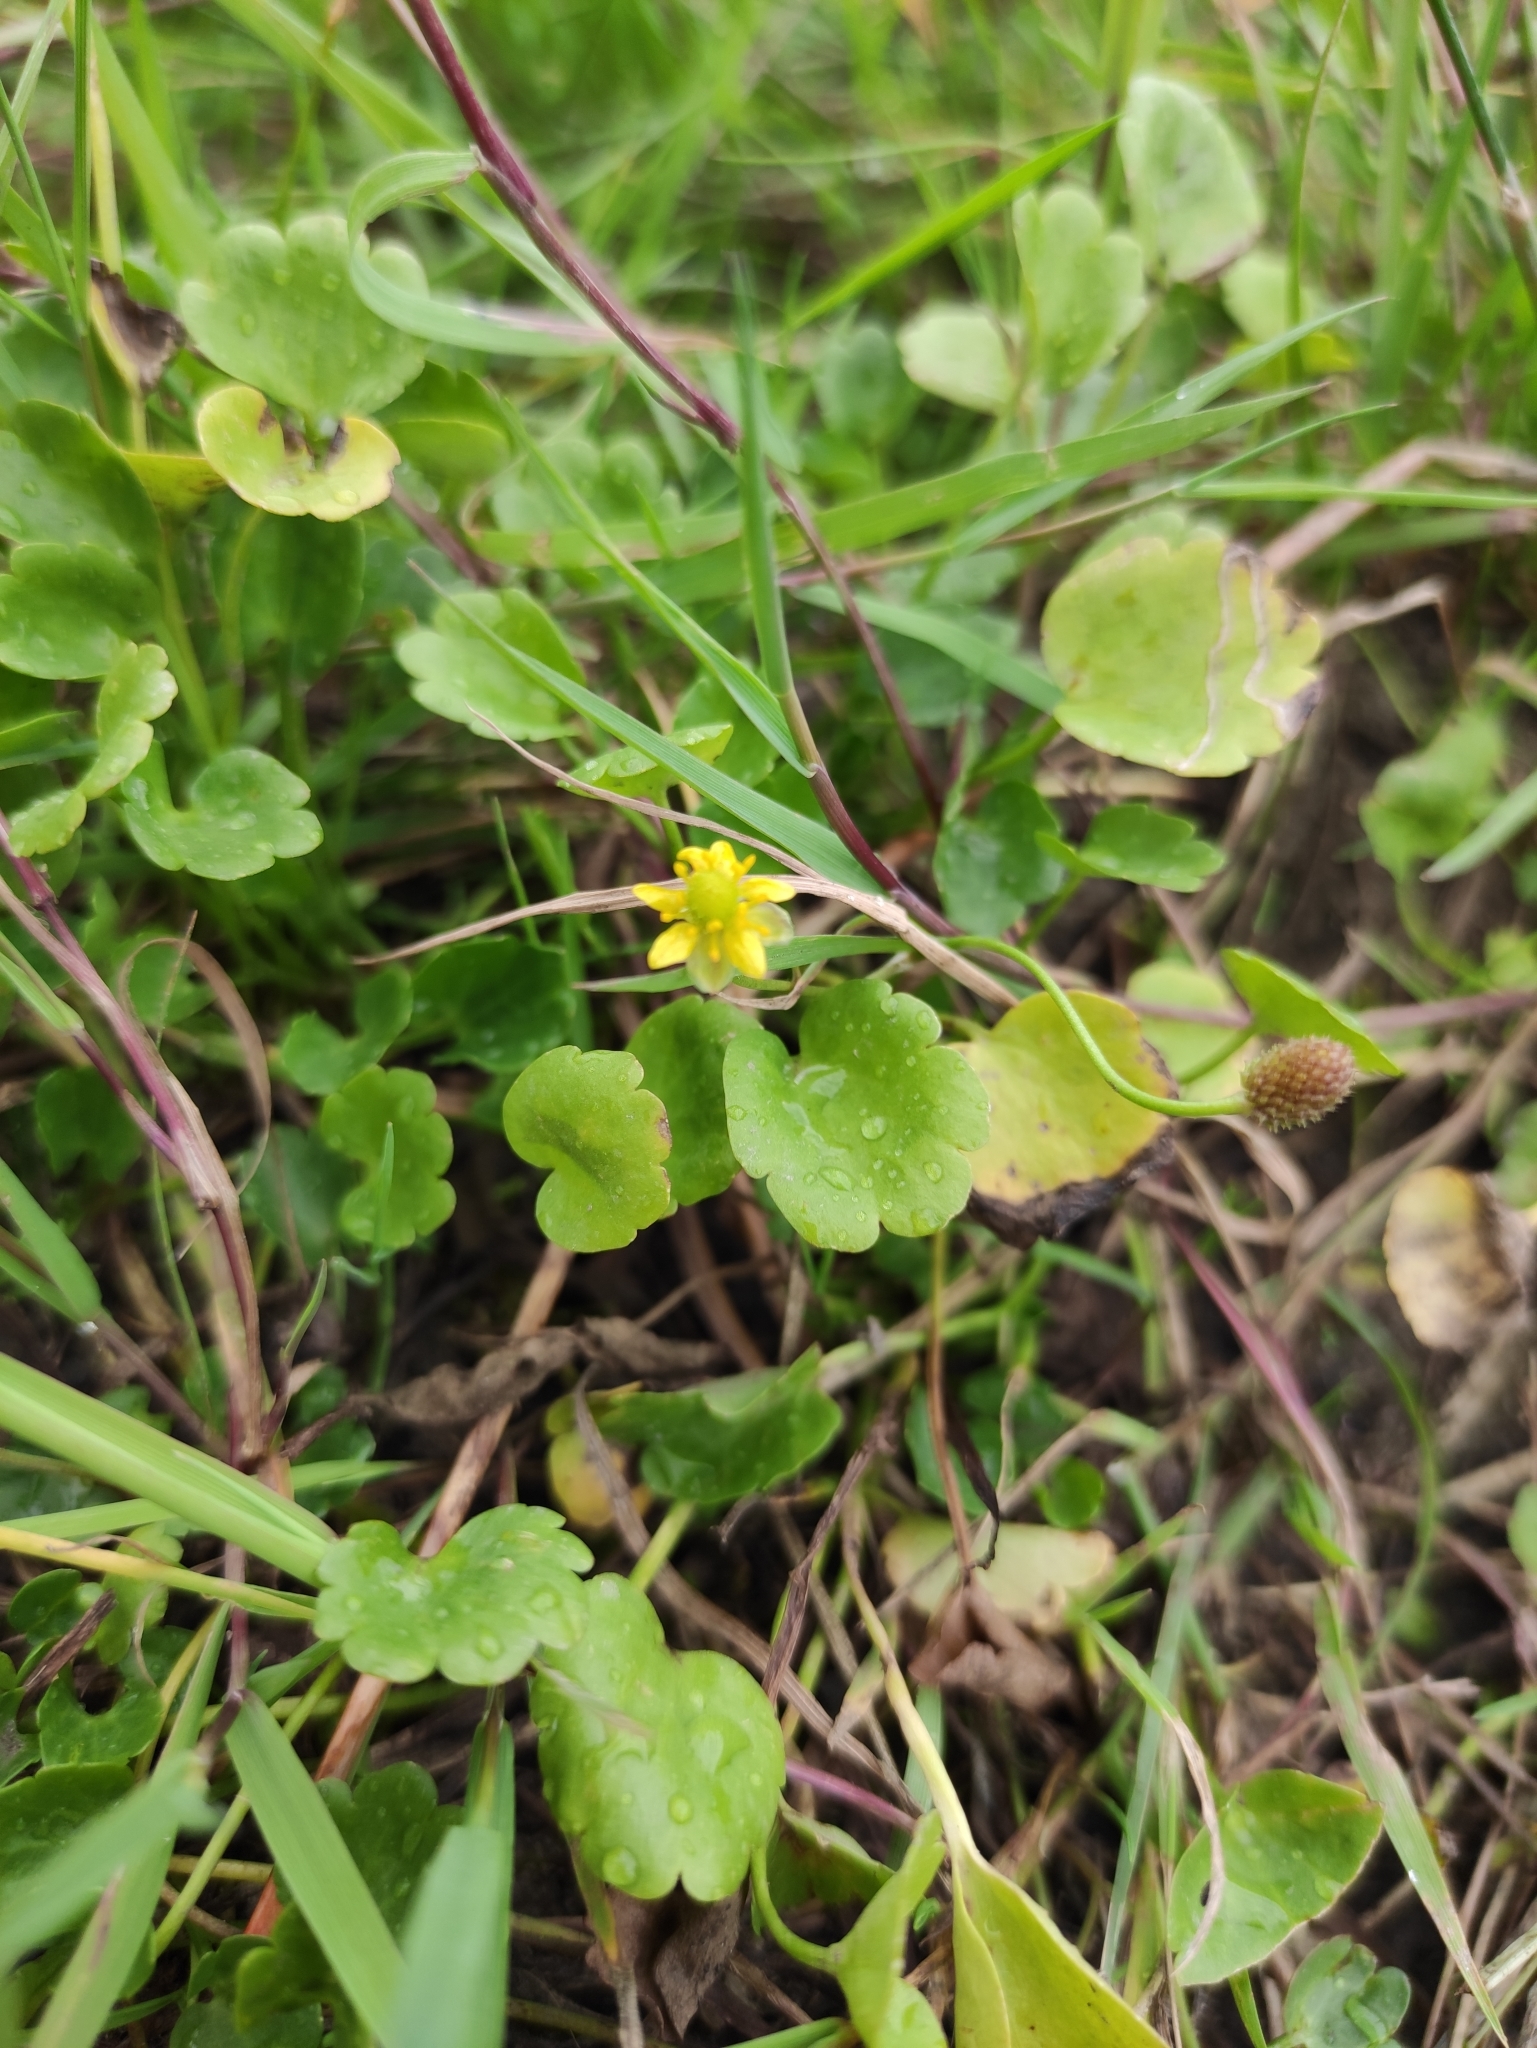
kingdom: Plantae
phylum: Tracheophyta
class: Magnoliopsida
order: Ranunculales
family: Ranunculaceae
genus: Halerpestes
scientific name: Halerpestes sarmentosus
